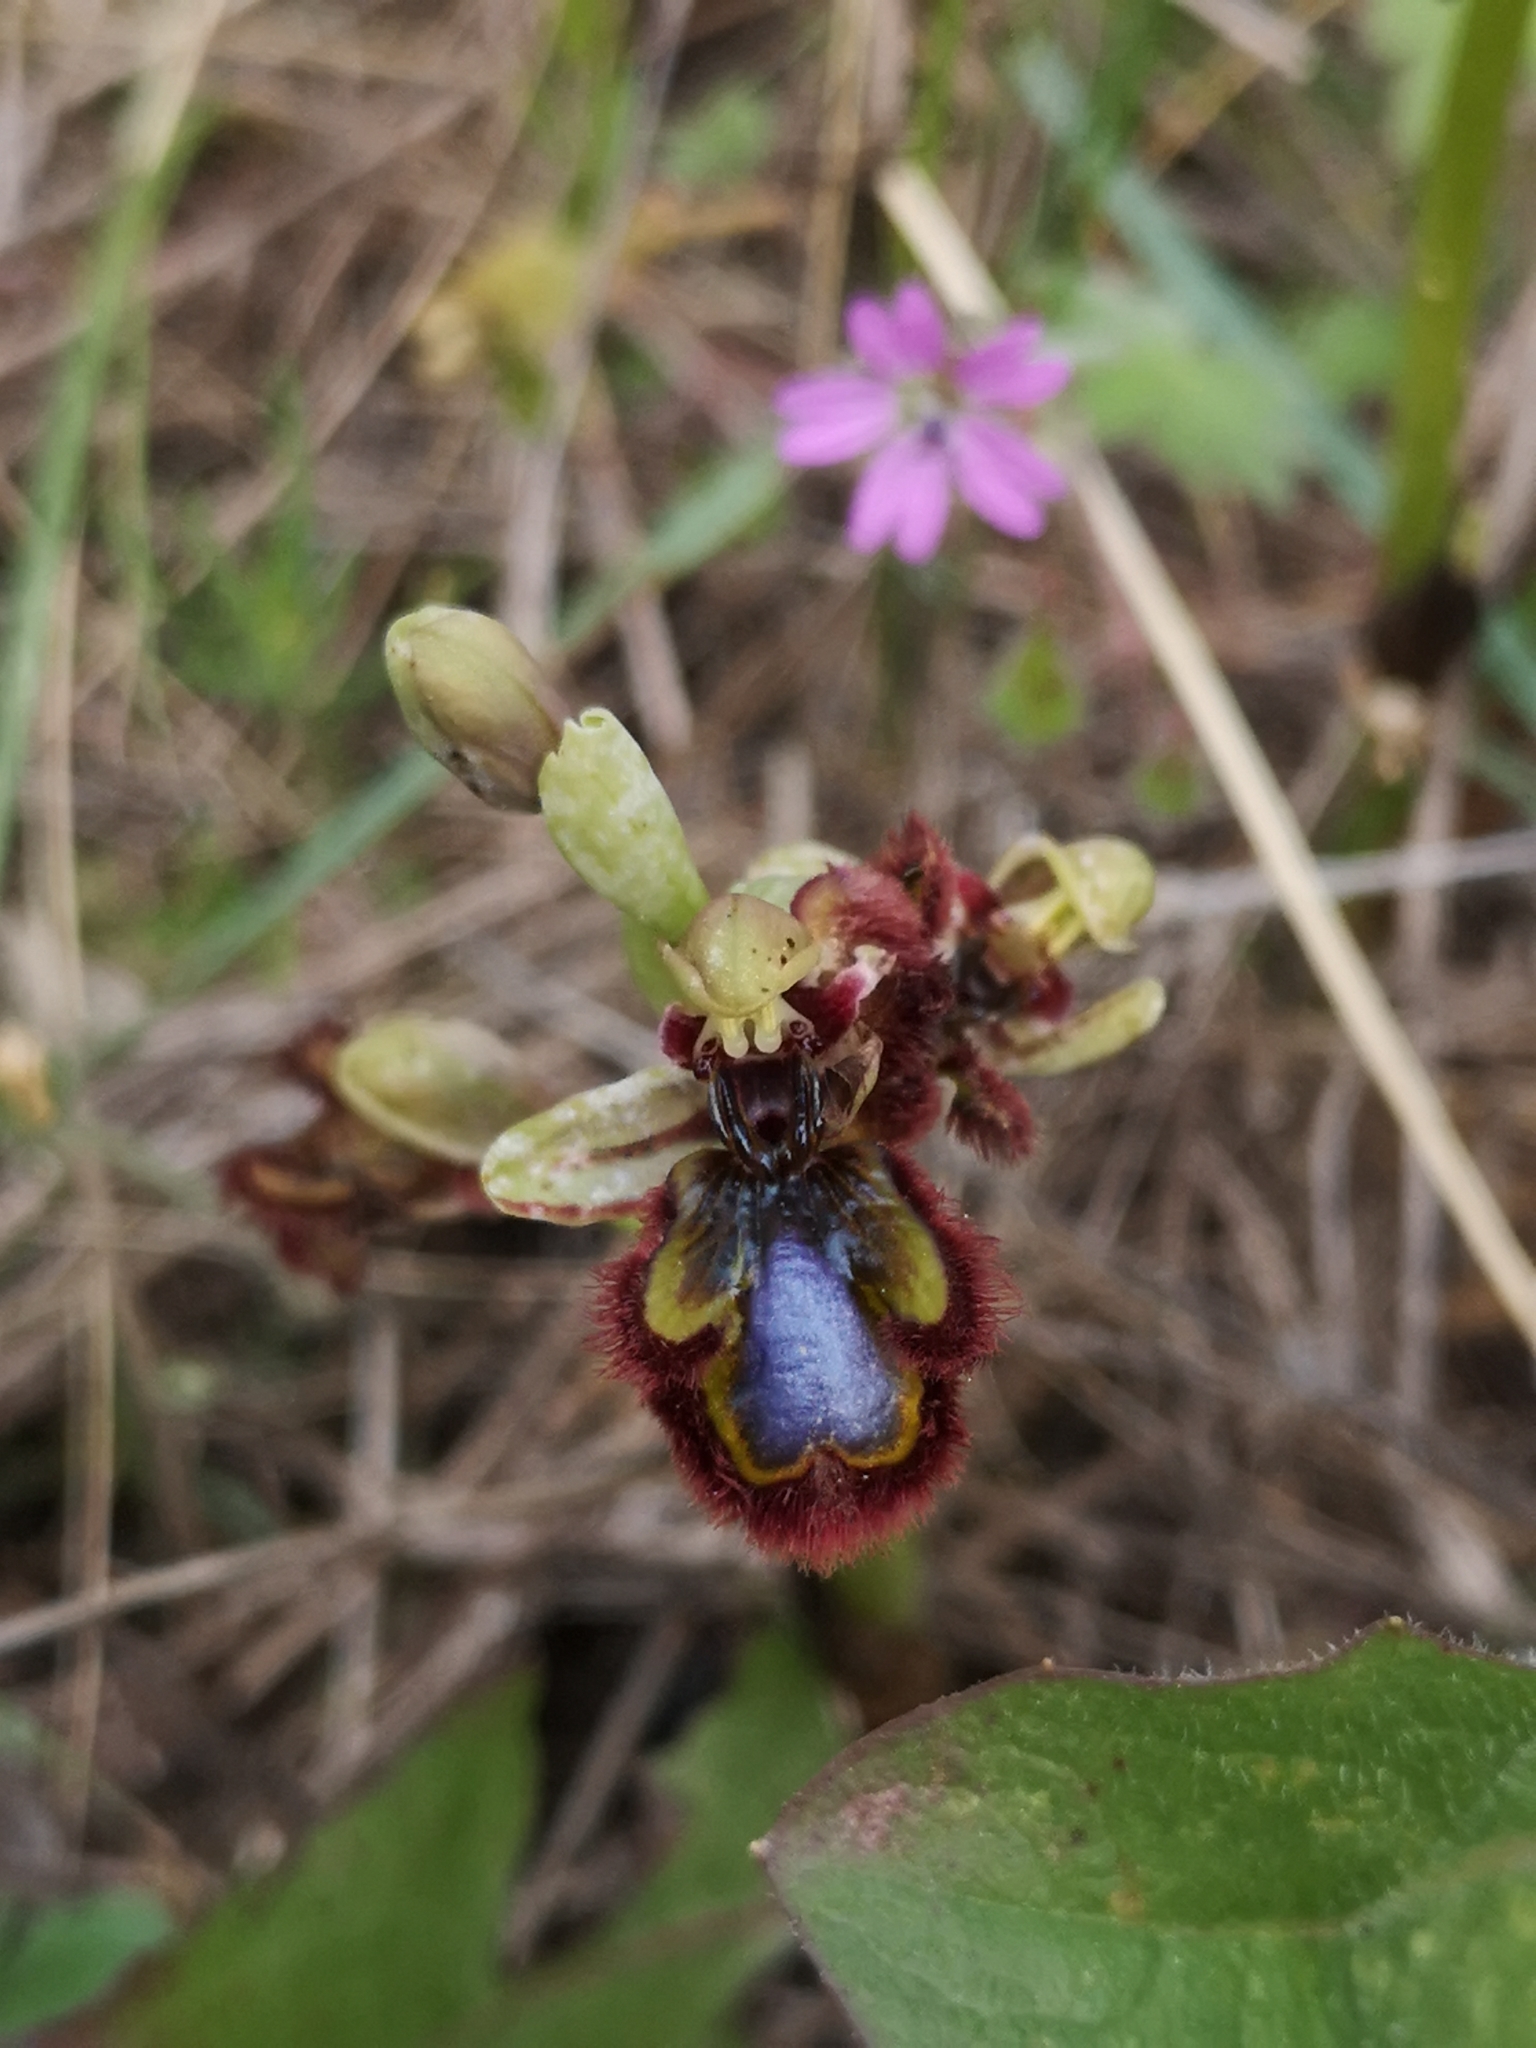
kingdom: Plantae
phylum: Tracheophyta
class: Liliopsida
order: Asparagales
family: Orchidaceae
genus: Ophrys
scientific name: Ophrys speculum
